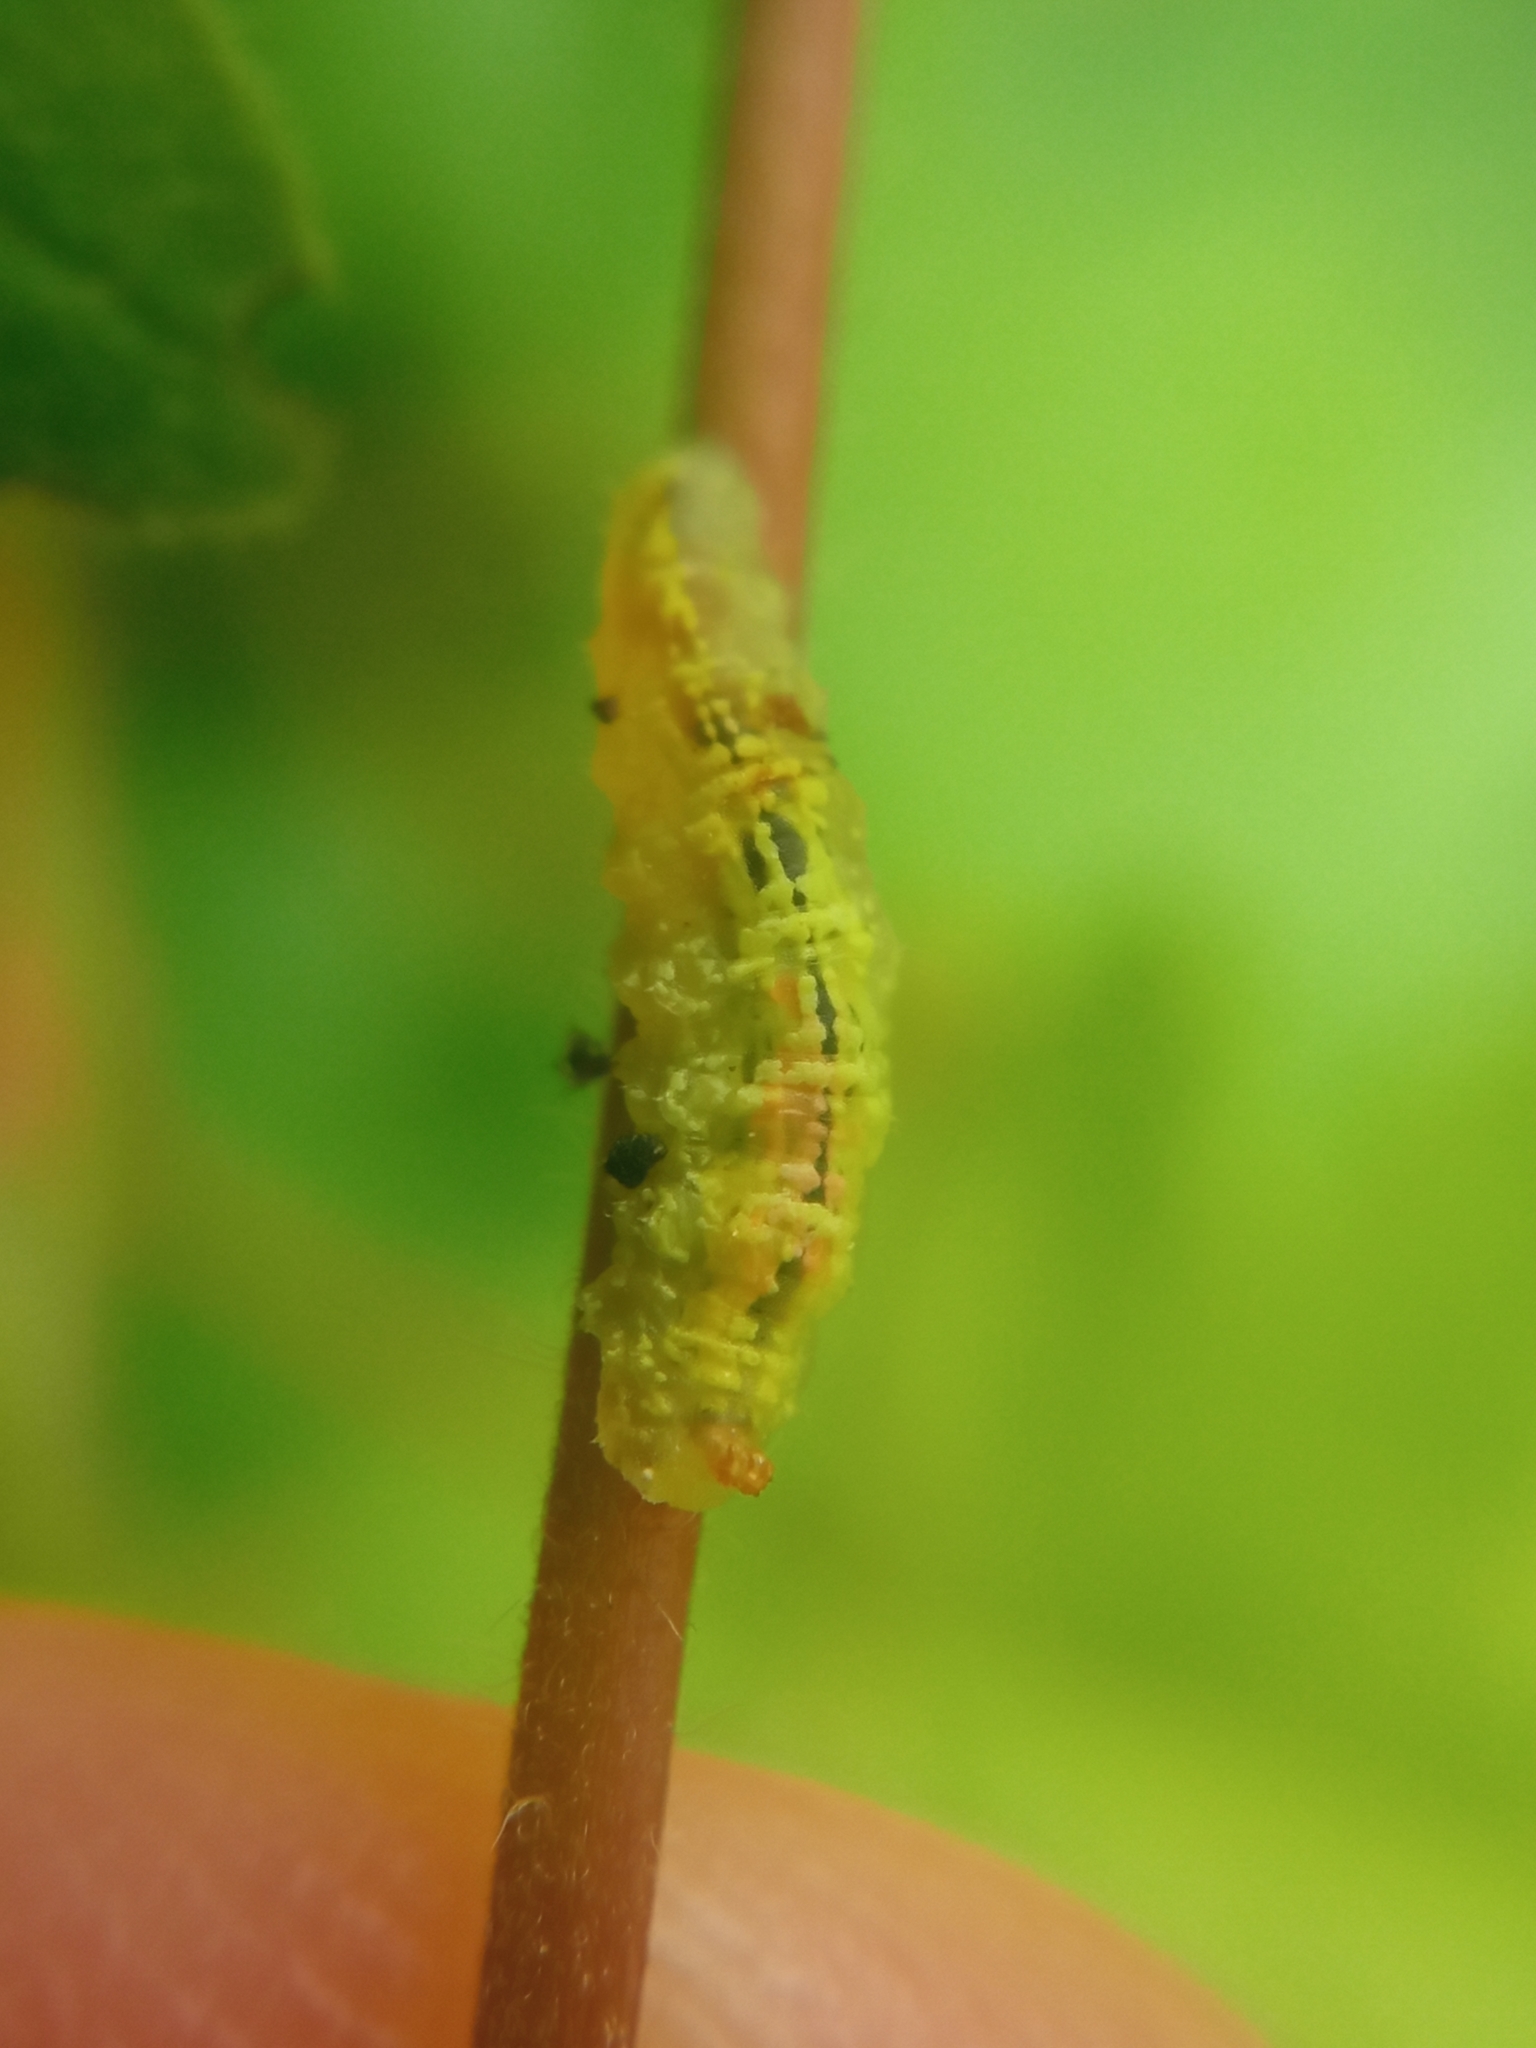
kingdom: Animalia
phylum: Arthropoda
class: Insecta
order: Diptera
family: Syrphidae
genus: Syrphus
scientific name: Syrphus
